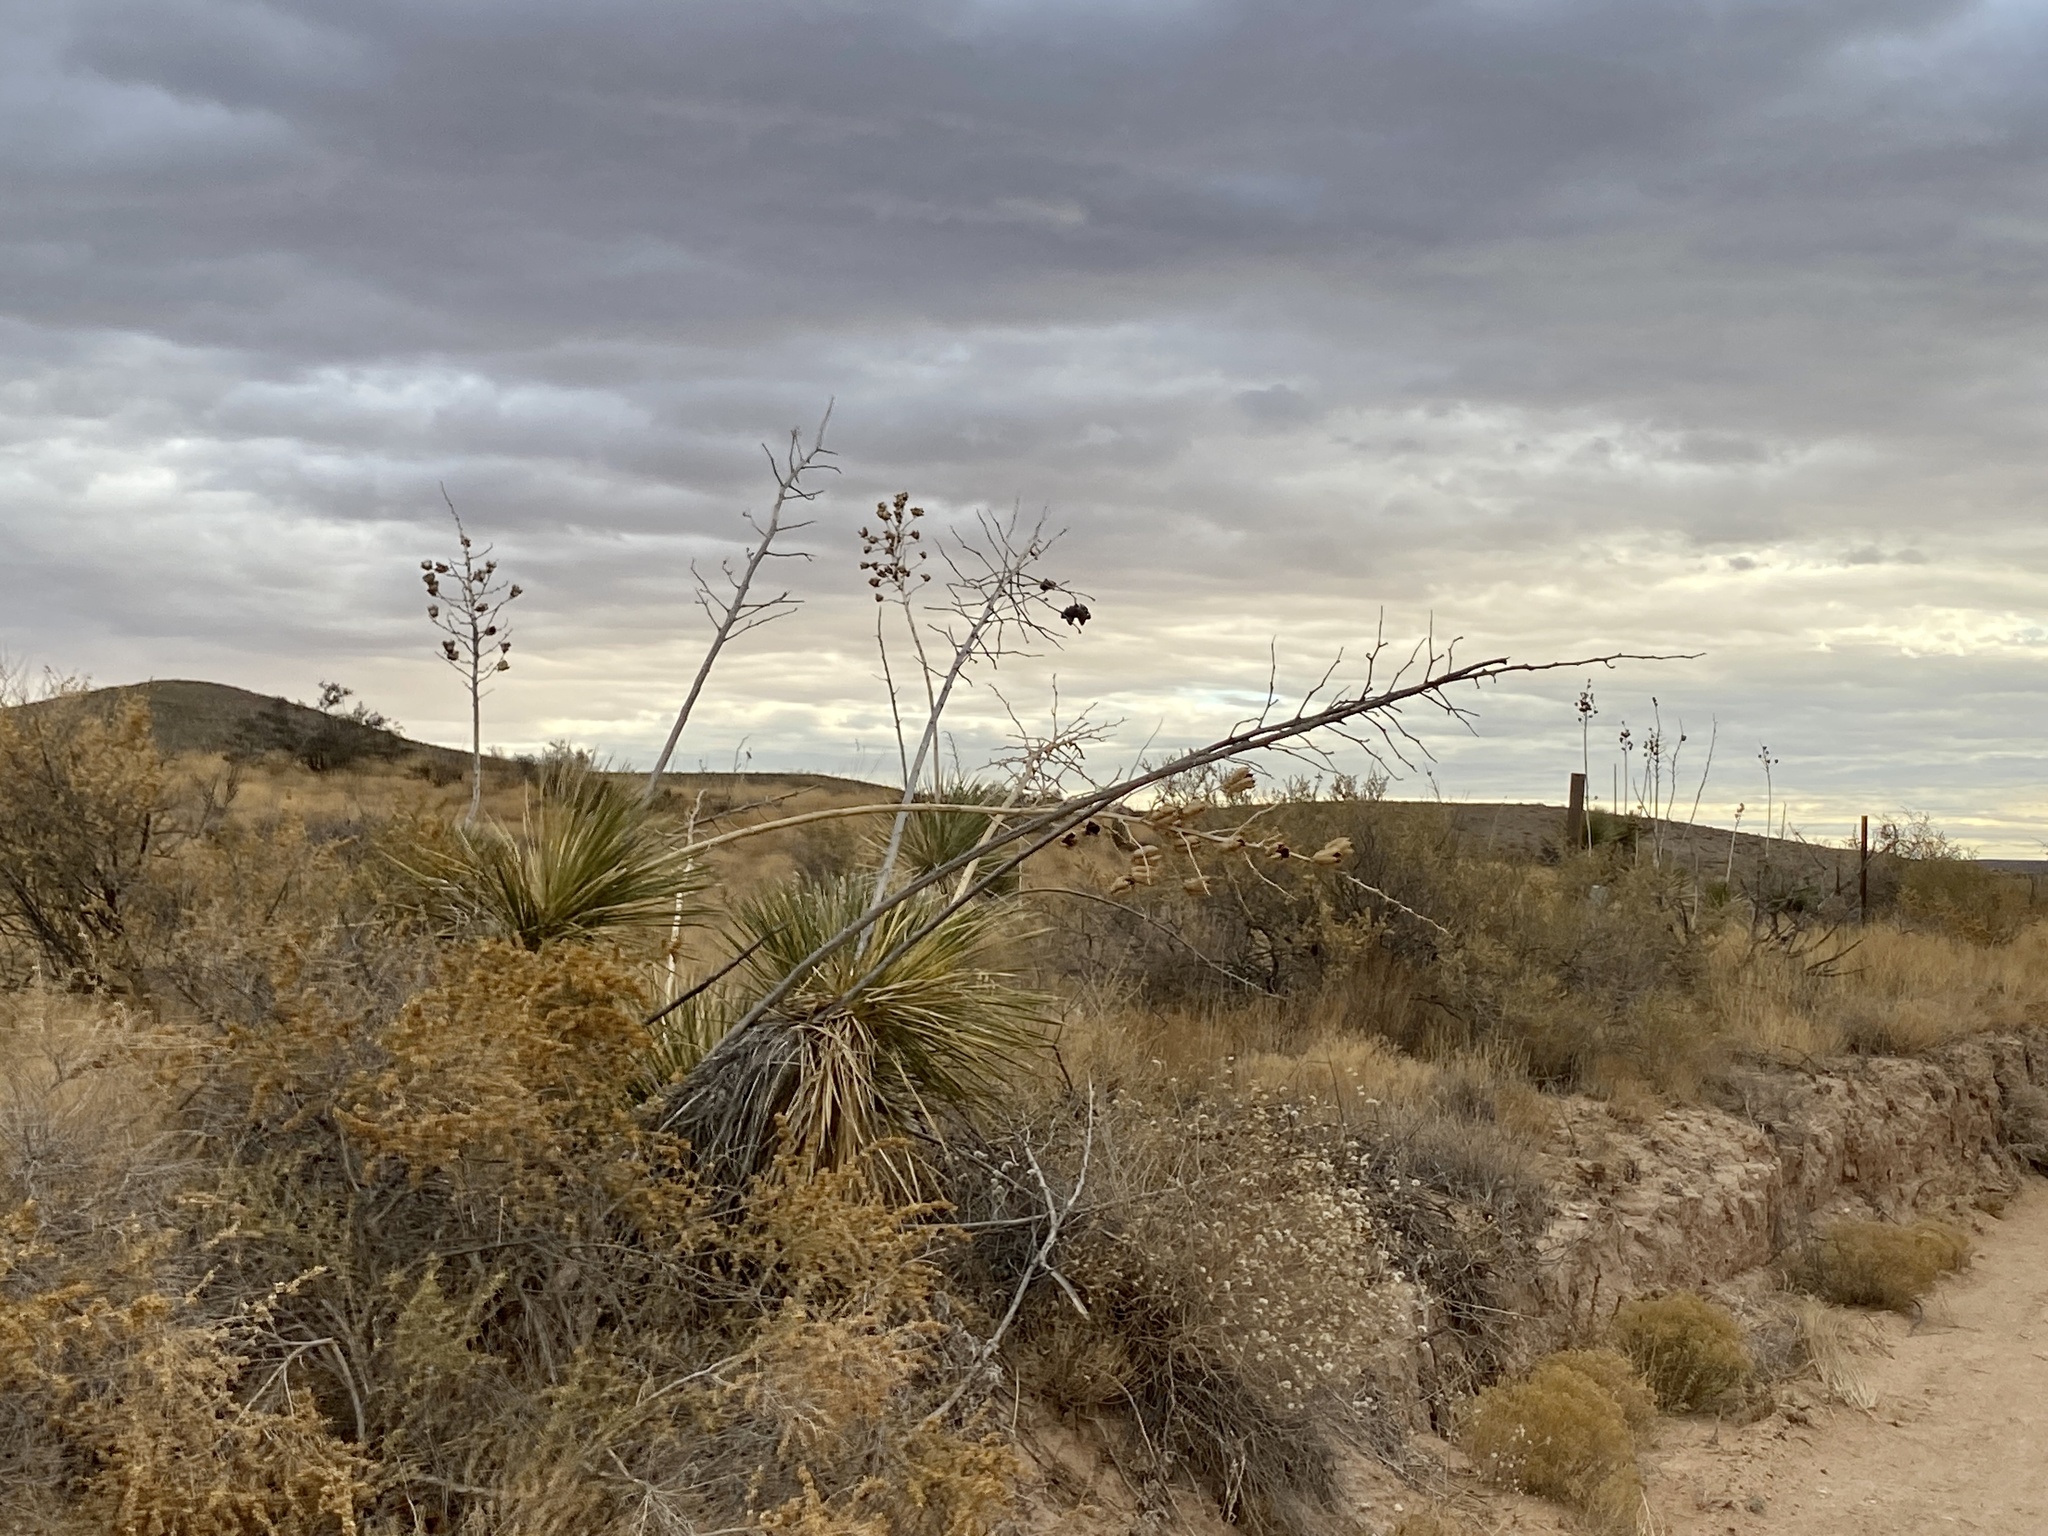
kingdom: Plantae
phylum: Tracheophyta
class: Liliopsida
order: Asparagales
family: Asparagaceae
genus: Yucca
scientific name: Yucca elata
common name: Palmella
